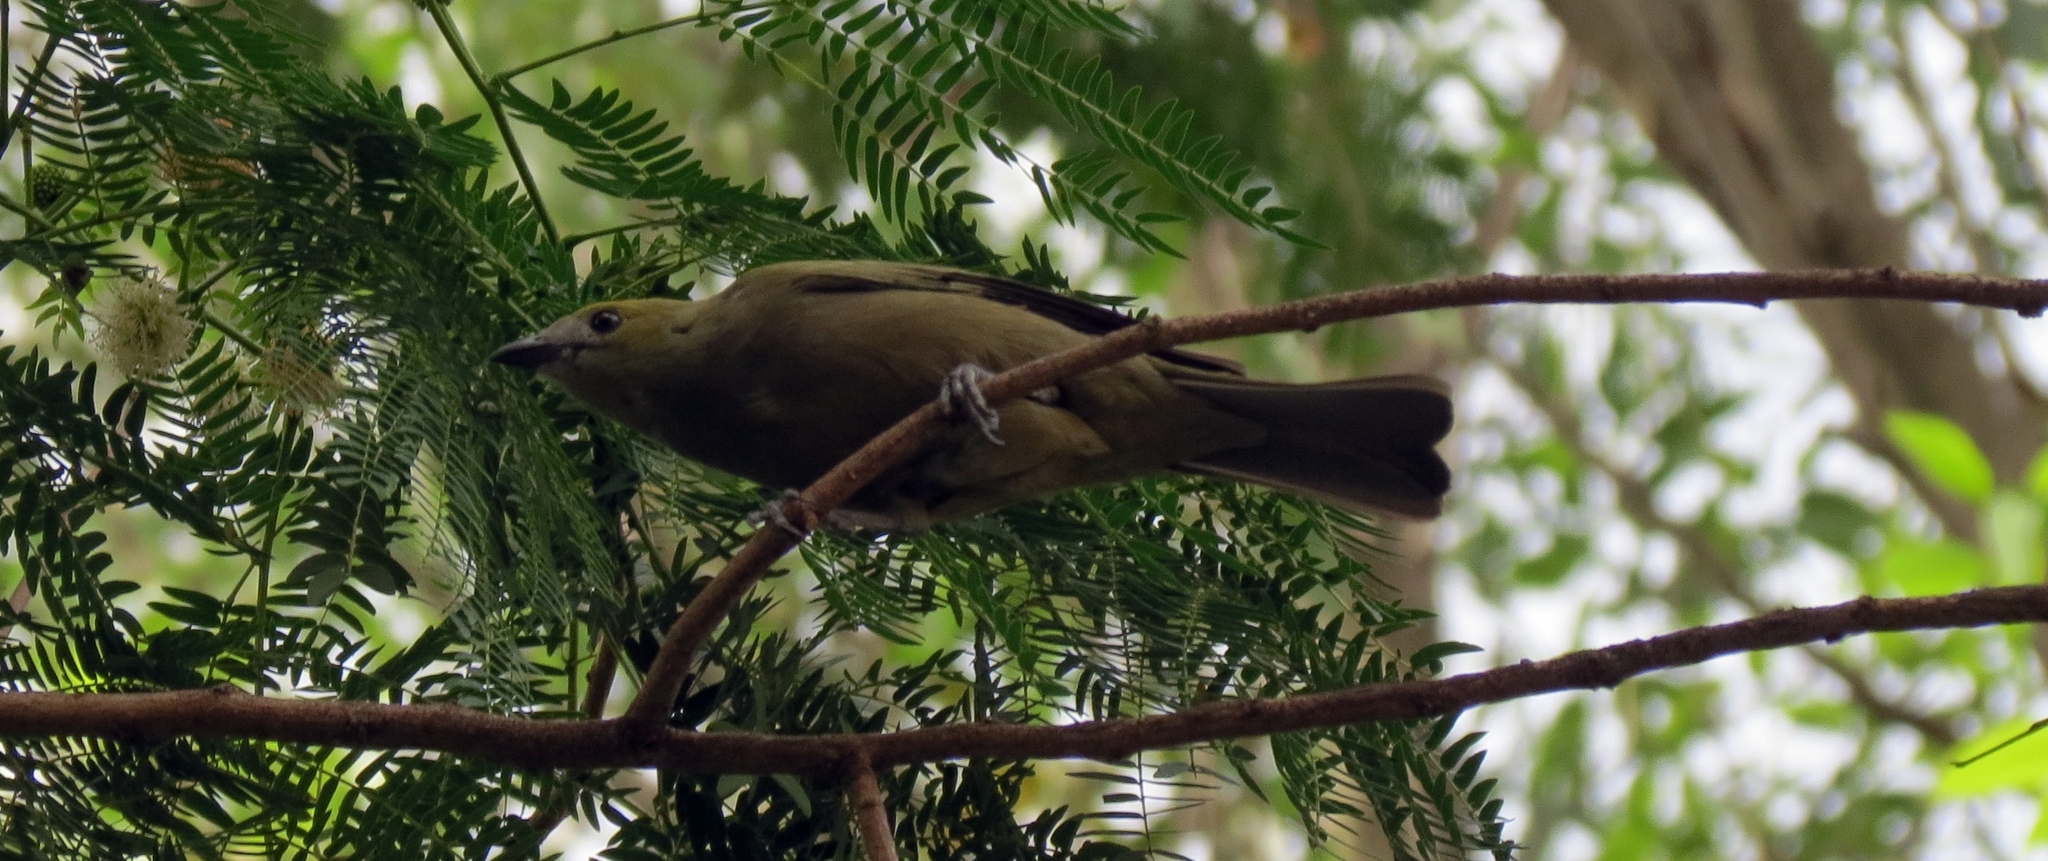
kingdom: Animalia
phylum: Chordata
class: Aves
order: Passeriformes
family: Thraupidae
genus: Thraupis
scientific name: Thraupis palmarum
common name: Palm tanager
